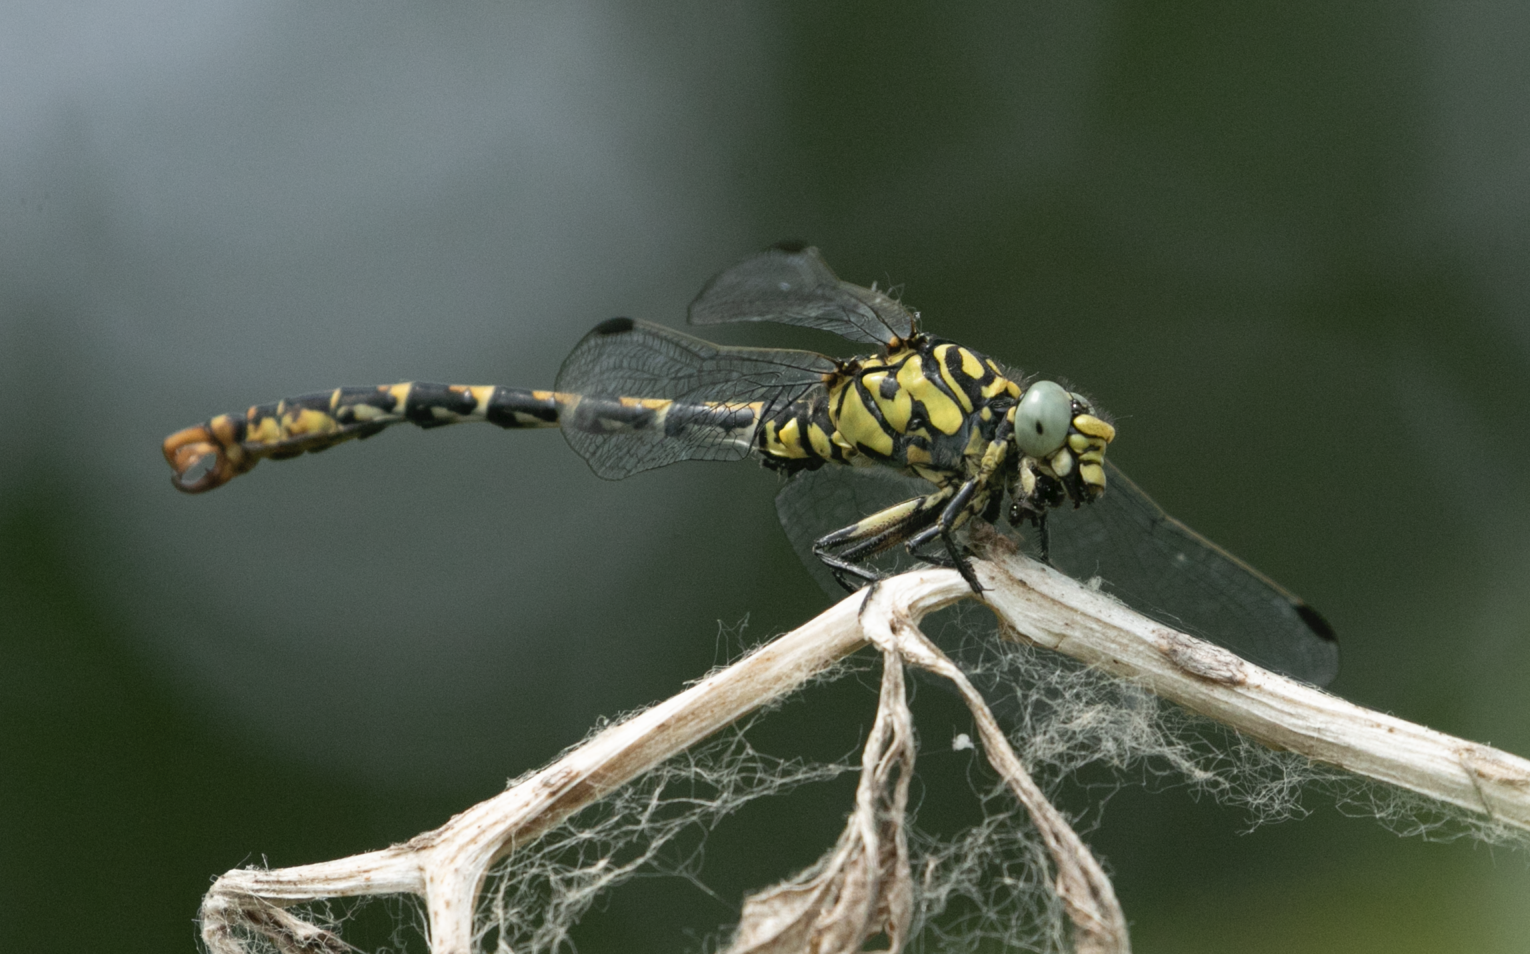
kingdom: Animalia
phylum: Arthropoda
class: Insecta
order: Odonata
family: Gomphidae
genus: Onychogomphus
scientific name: Onychogomphus forcipatus
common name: Small pincertail
